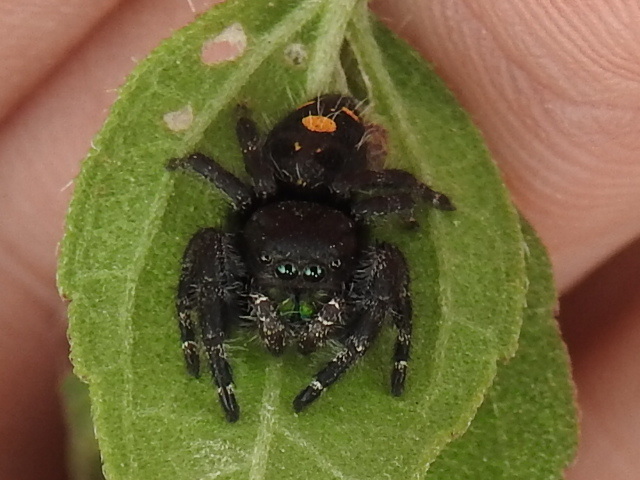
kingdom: Animalia
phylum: Arthropoda
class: Arachnida
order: Araneae
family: Salticidae
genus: Phidippus
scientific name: Phidippus audax
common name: Bold jumper
